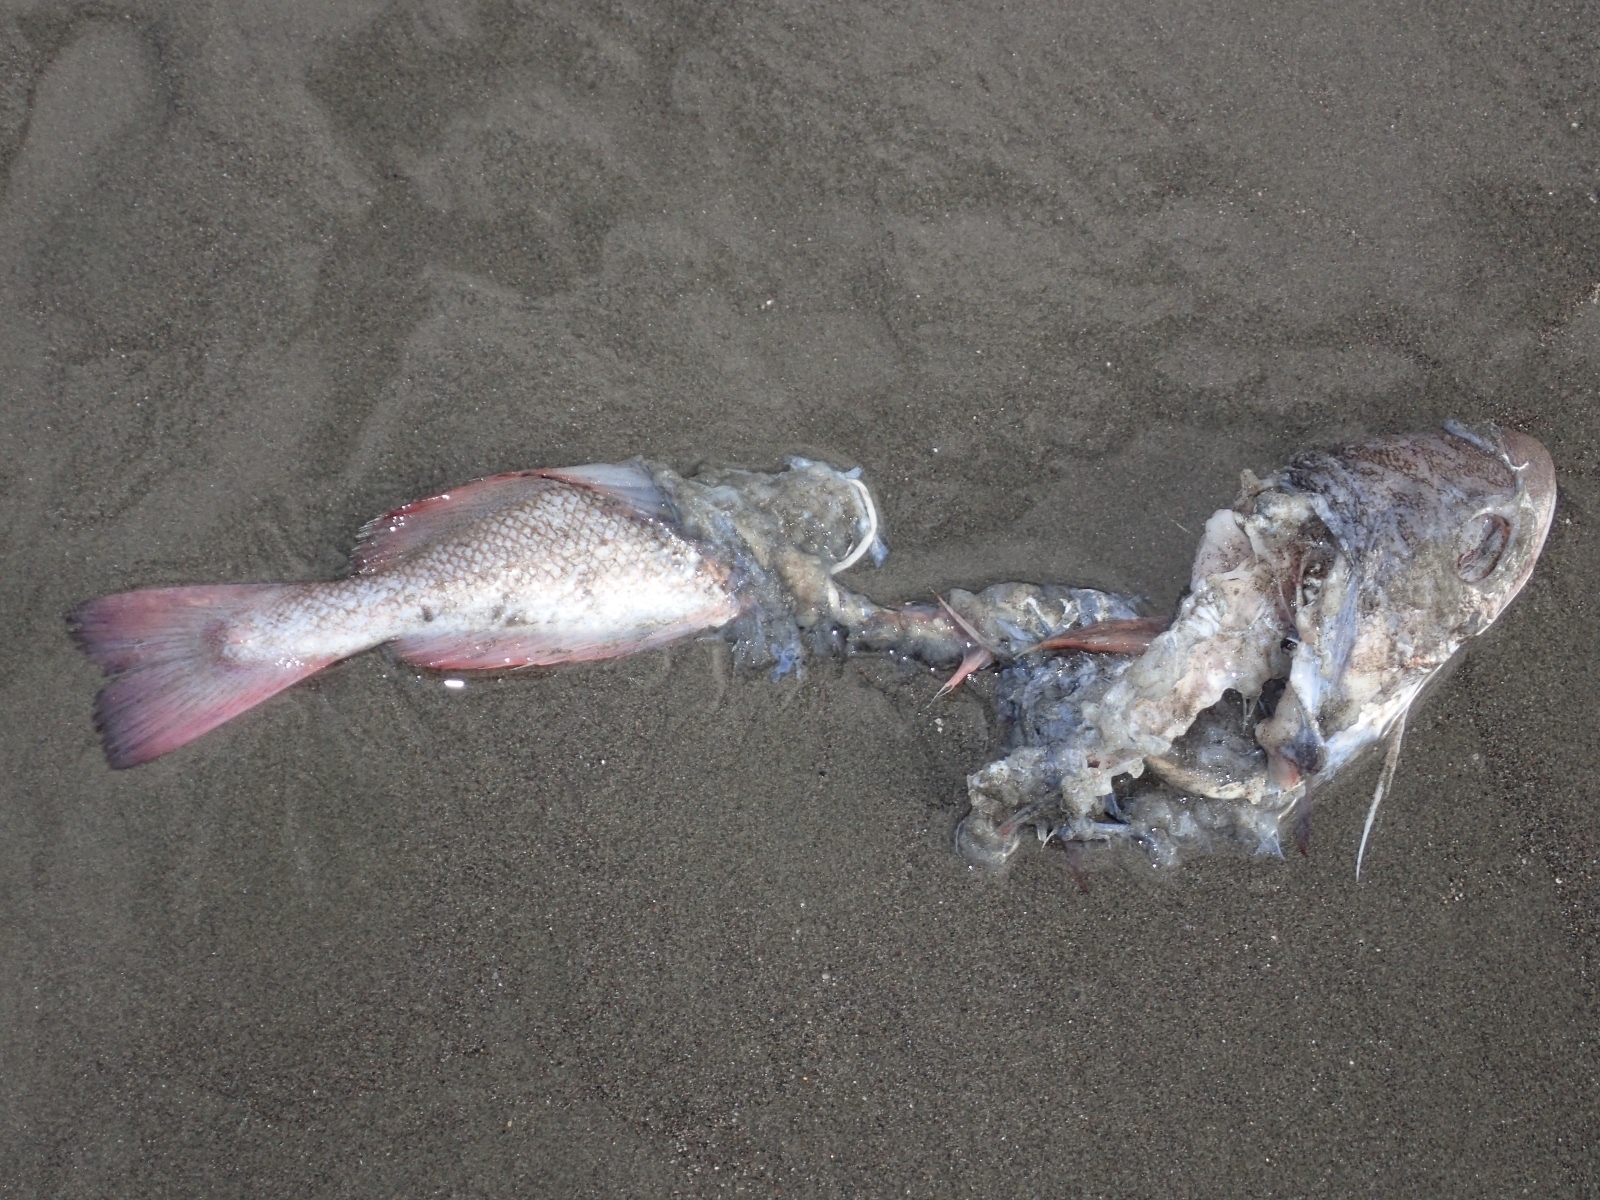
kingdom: Animalia
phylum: Chordata
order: Gadiformes
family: Moridae
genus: Pseudophycis
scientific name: Pseudophycis bachus
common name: Red cod
